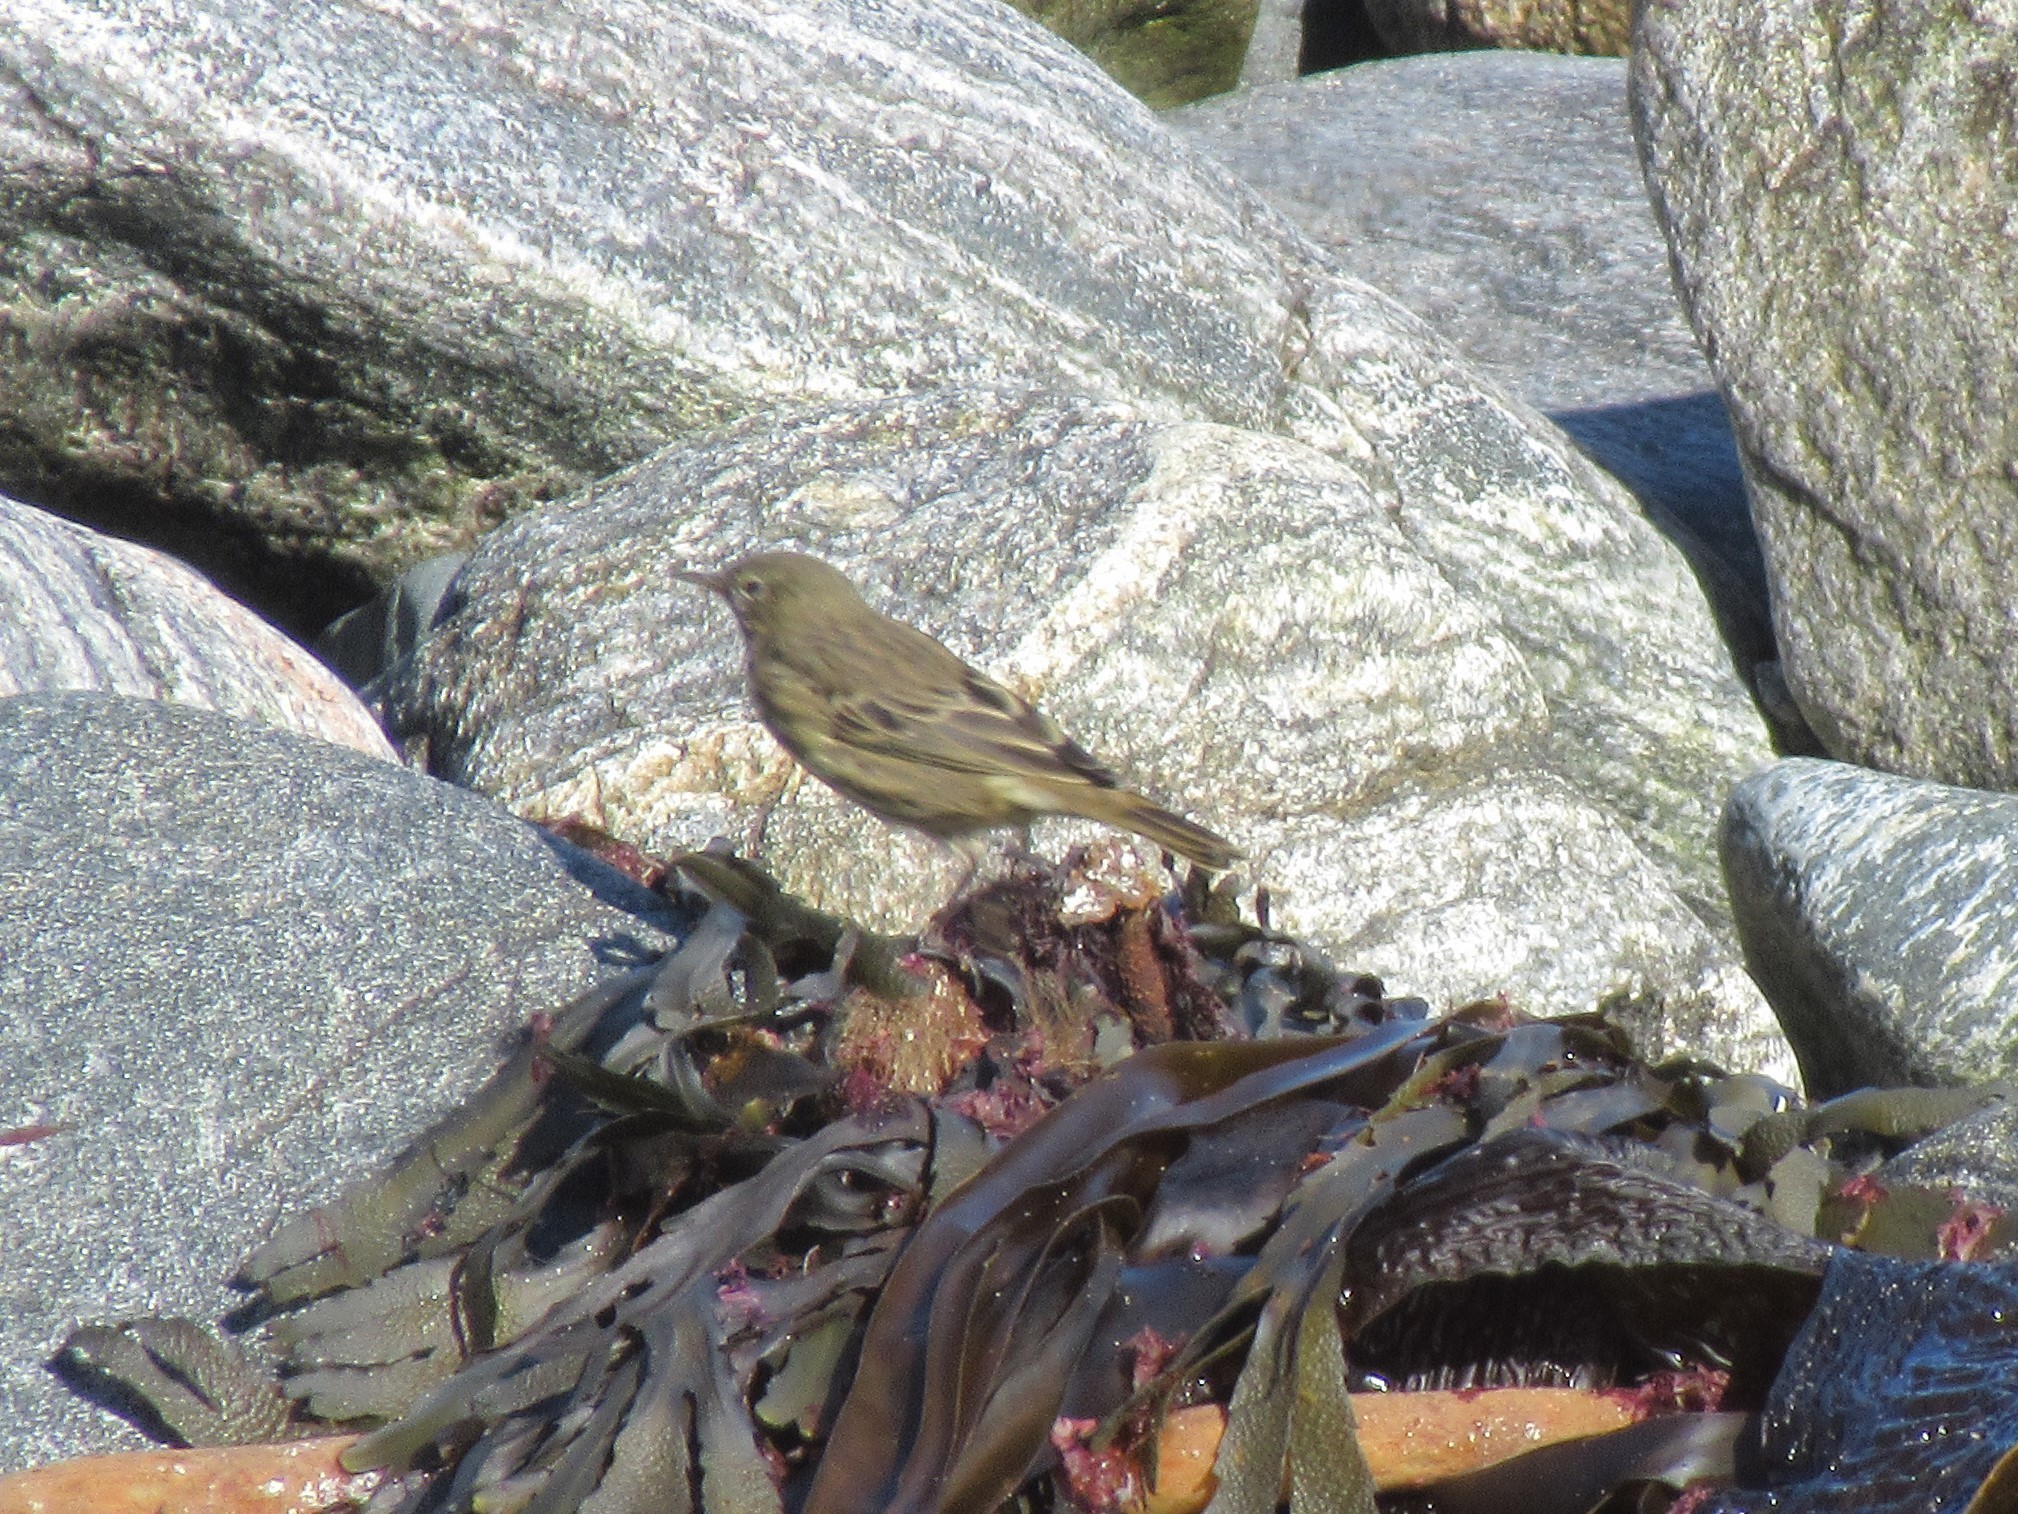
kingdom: Animalia
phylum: Chordata
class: Aves
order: Passeriformes
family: Motacillidae
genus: Anthus
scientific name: Anthus petrosus
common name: Eurasian rock pipit
